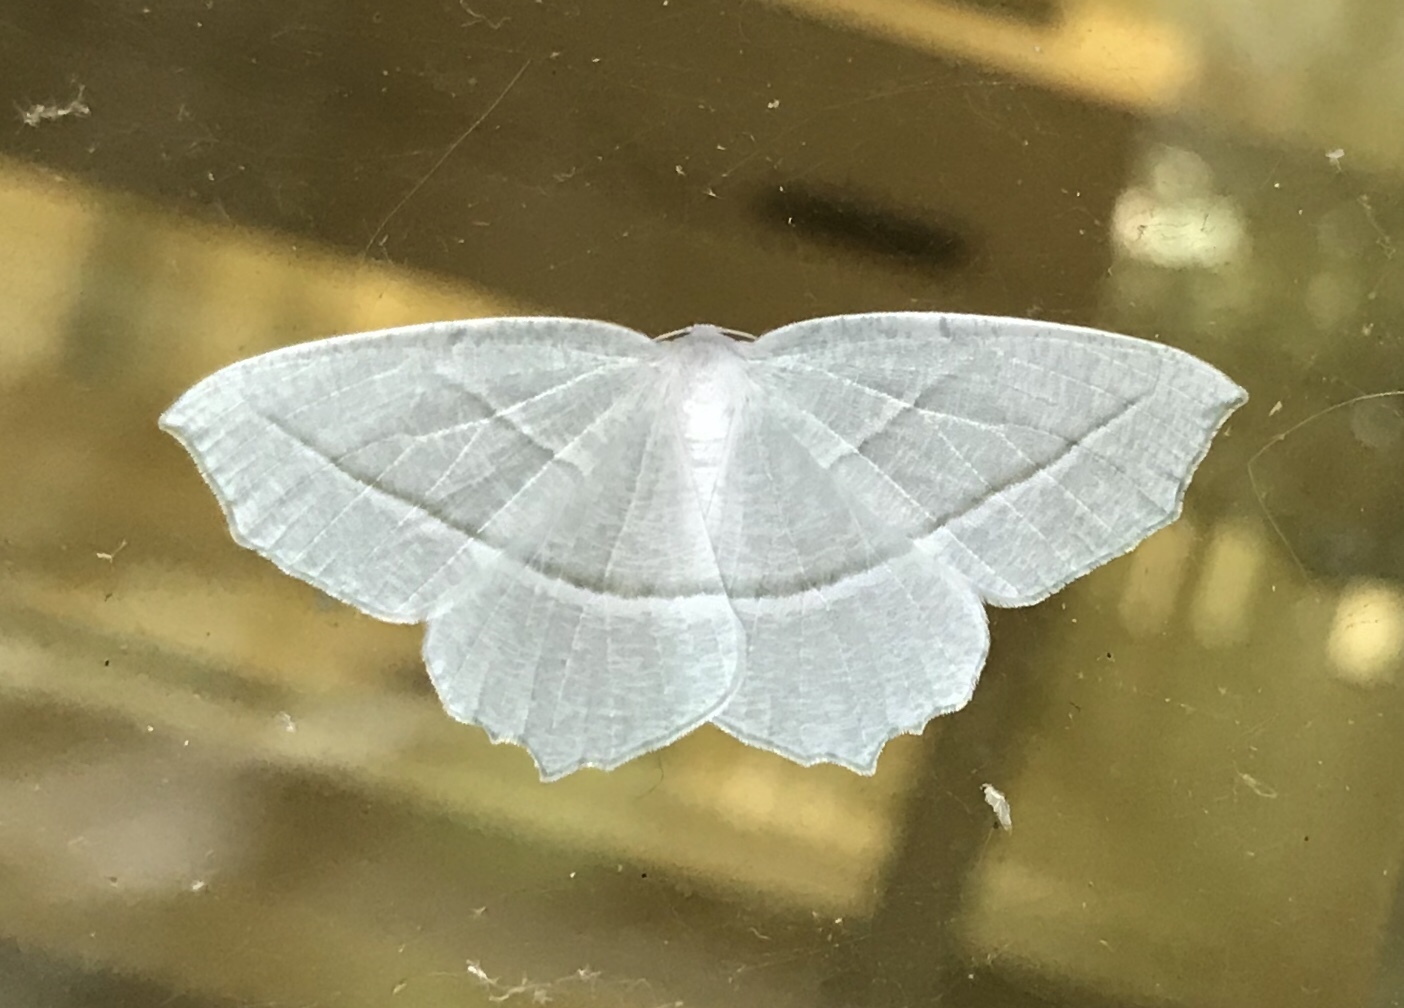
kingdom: Animalia
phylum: Arthropoda
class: Insecta
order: Lepidoptera
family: Geometridae
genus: Campaea
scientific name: Campaea perlata
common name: Fringed looper
